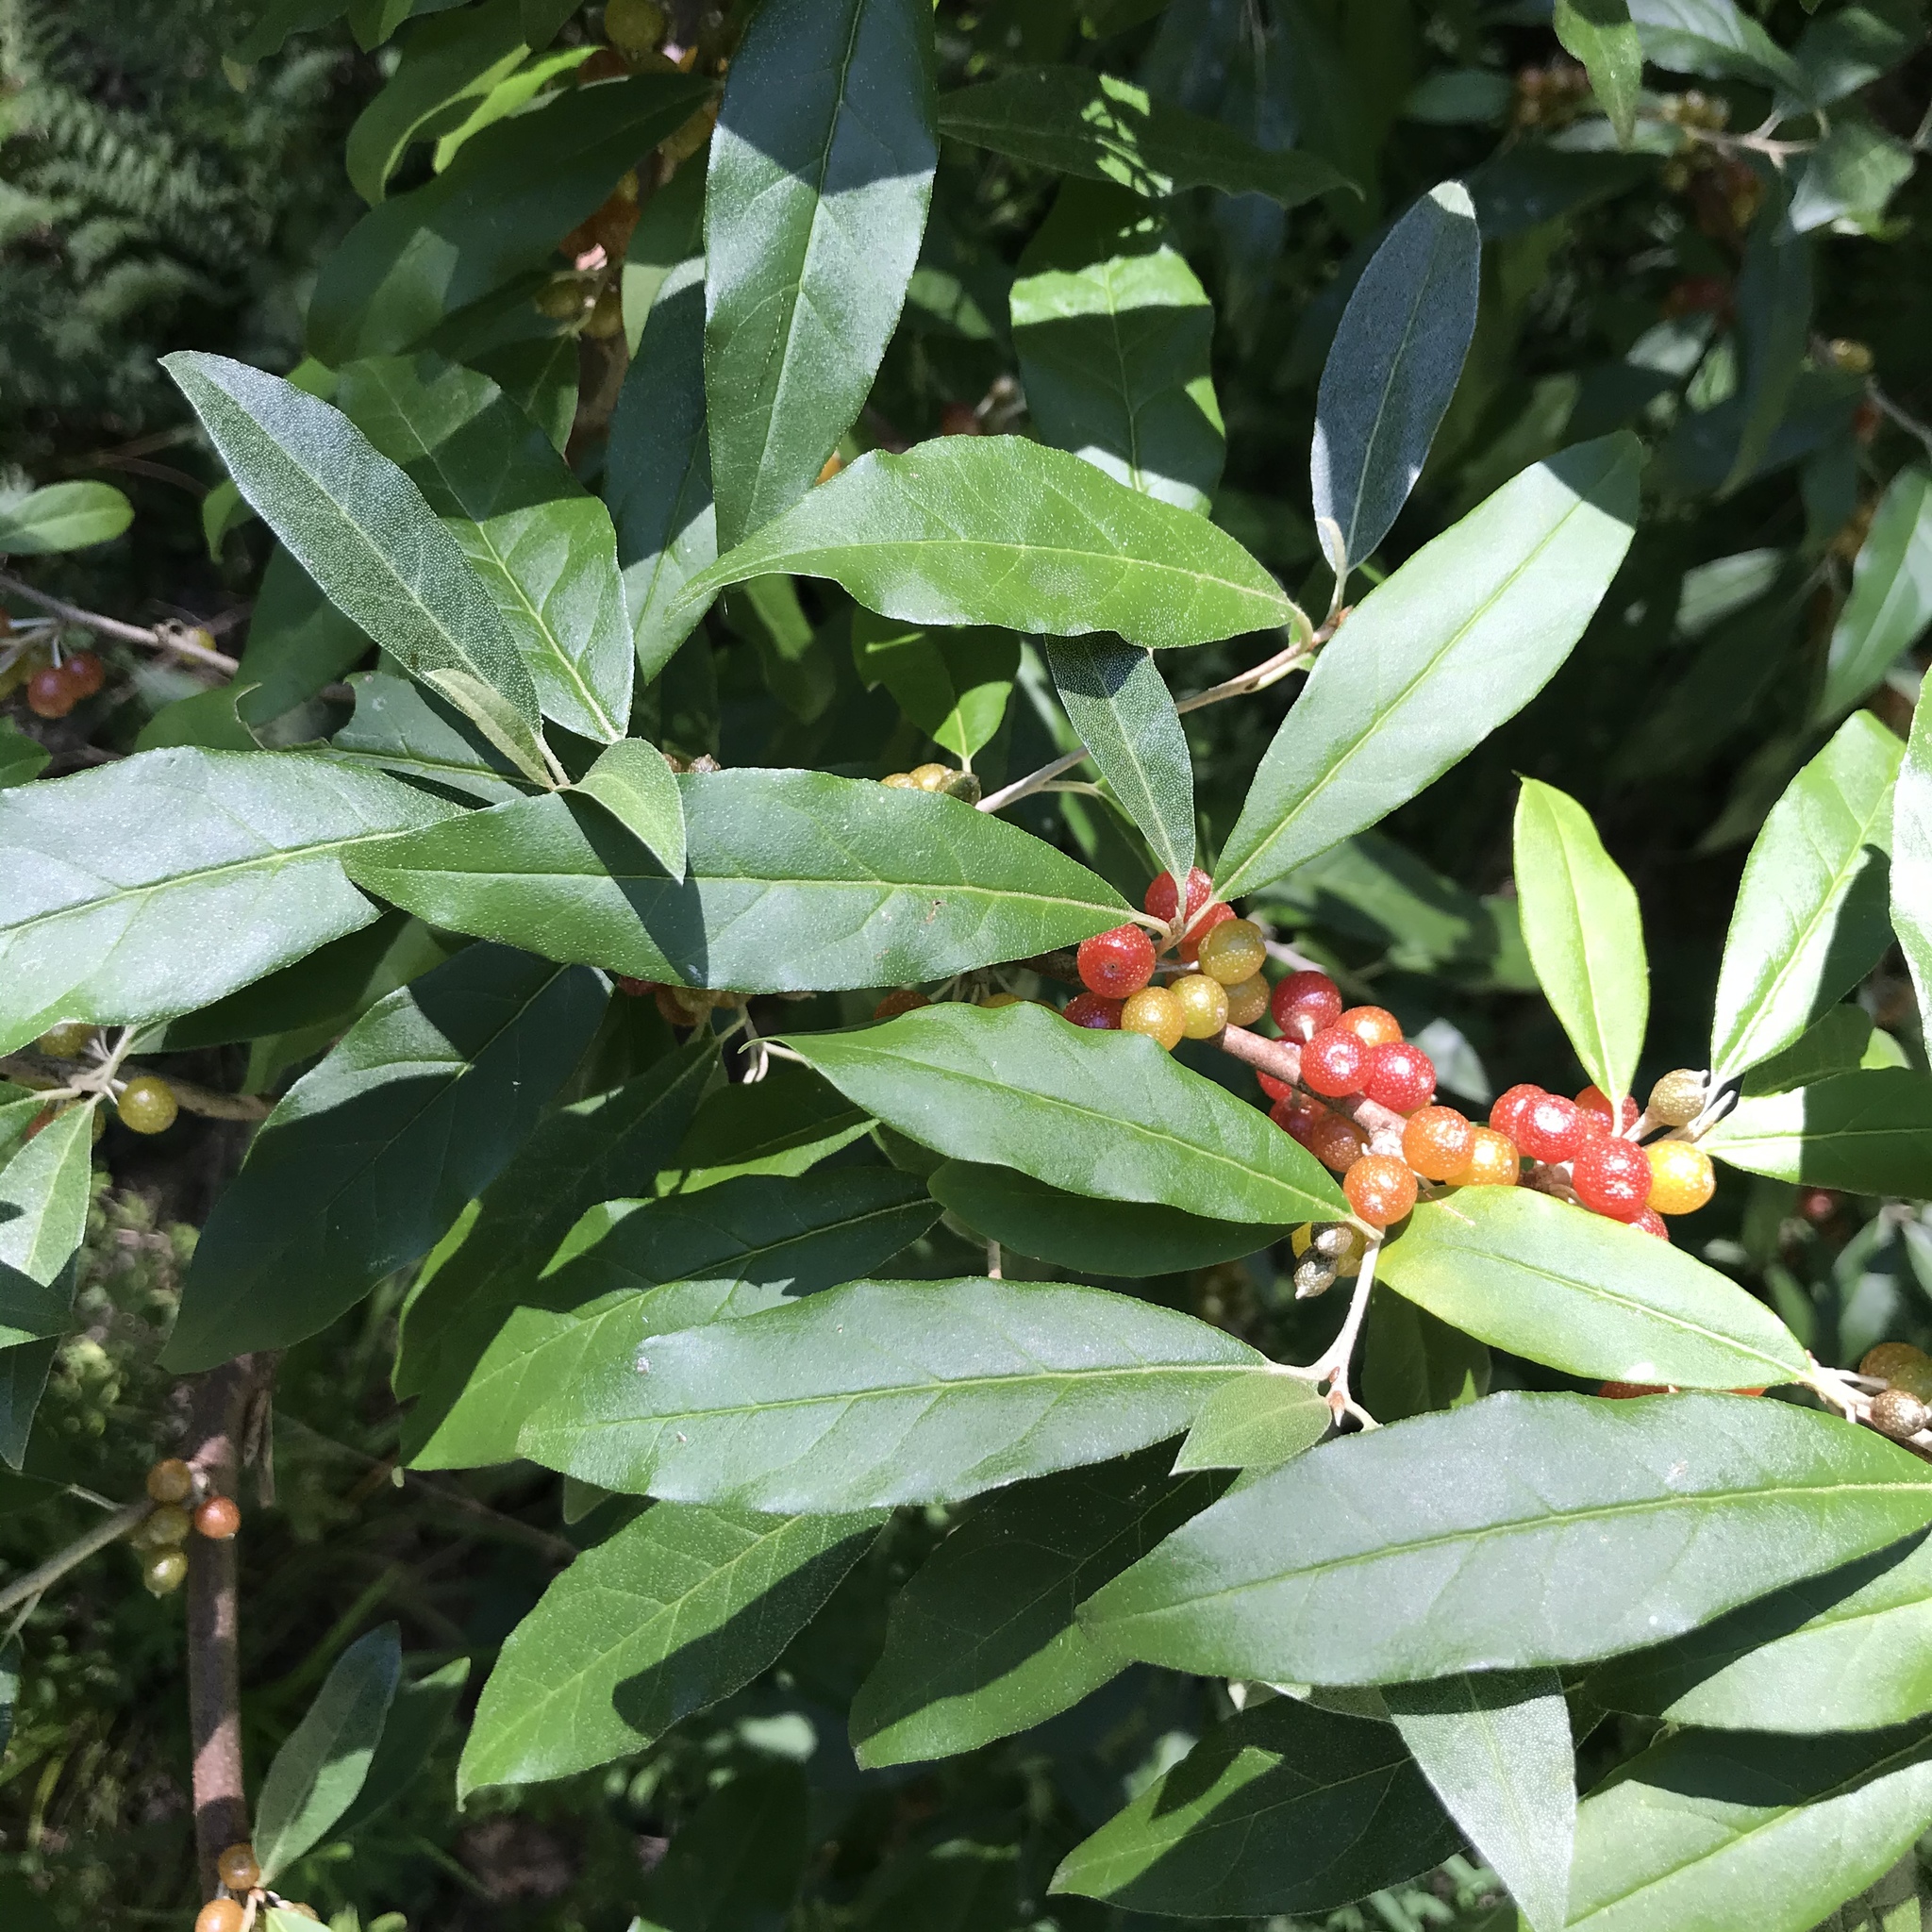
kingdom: Plantae
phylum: Tracheophyta
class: Magnoliopsida
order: Rosales
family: Elaeagnaceae
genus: Elaeagnus
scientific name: Elaeagnus umbellata
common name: Autumn olive
